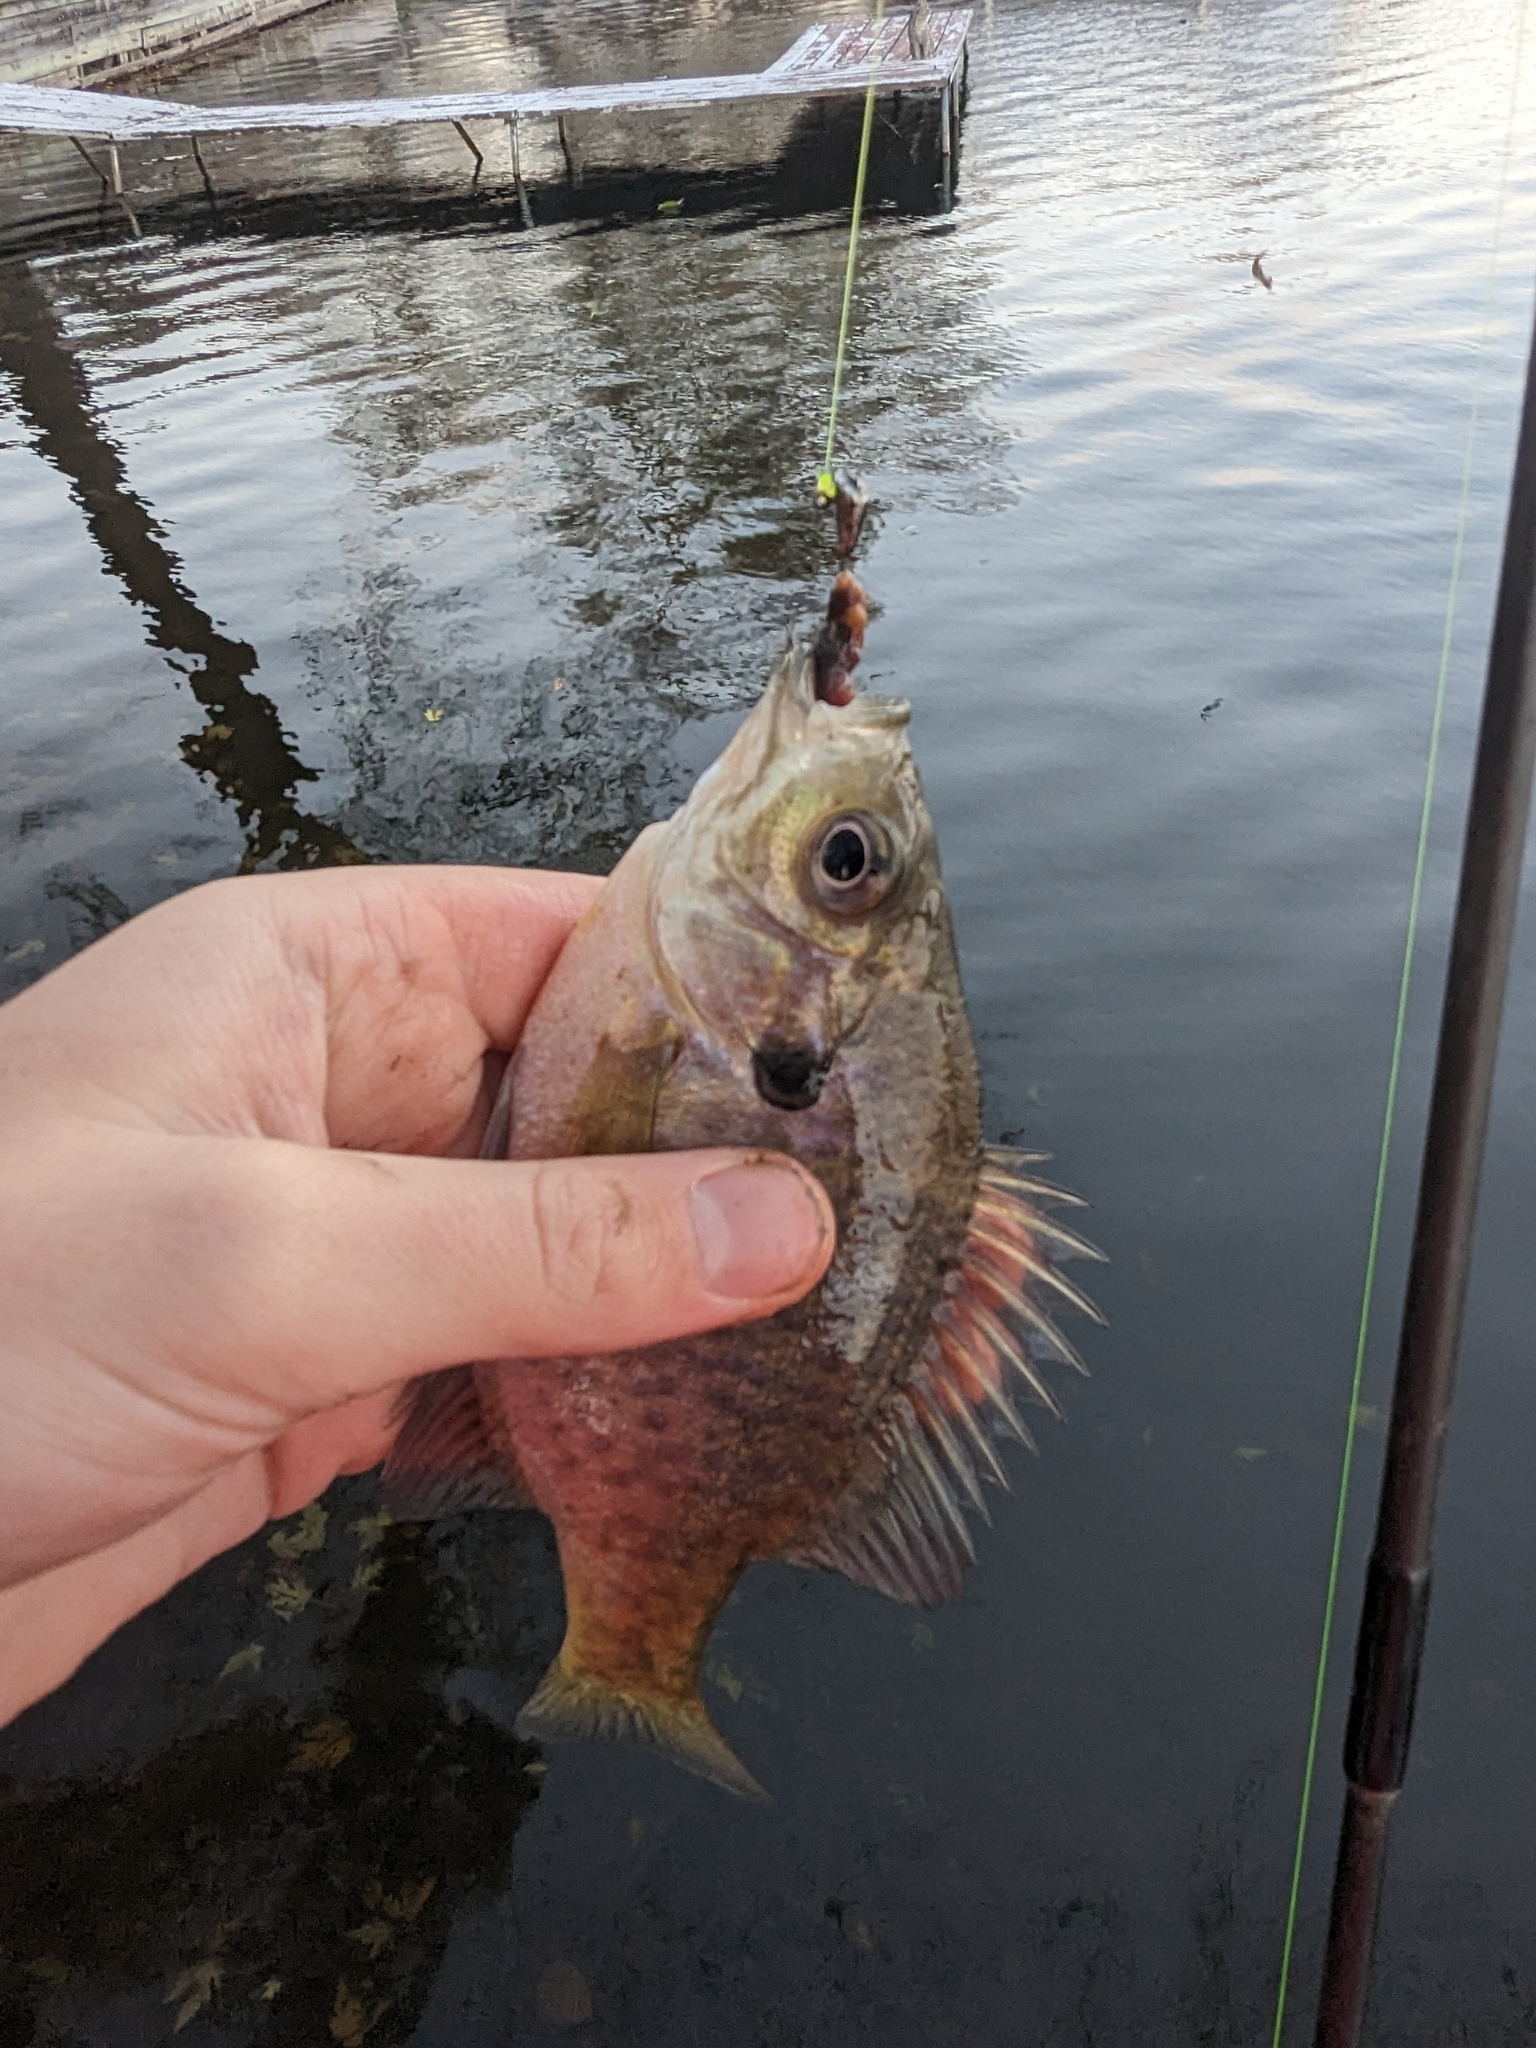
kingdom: Animalia
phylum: Chordata
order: Perciformes
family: Centrarchidae
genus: Lepomis
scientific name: Lepomis macrochirus
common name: Bluegill
